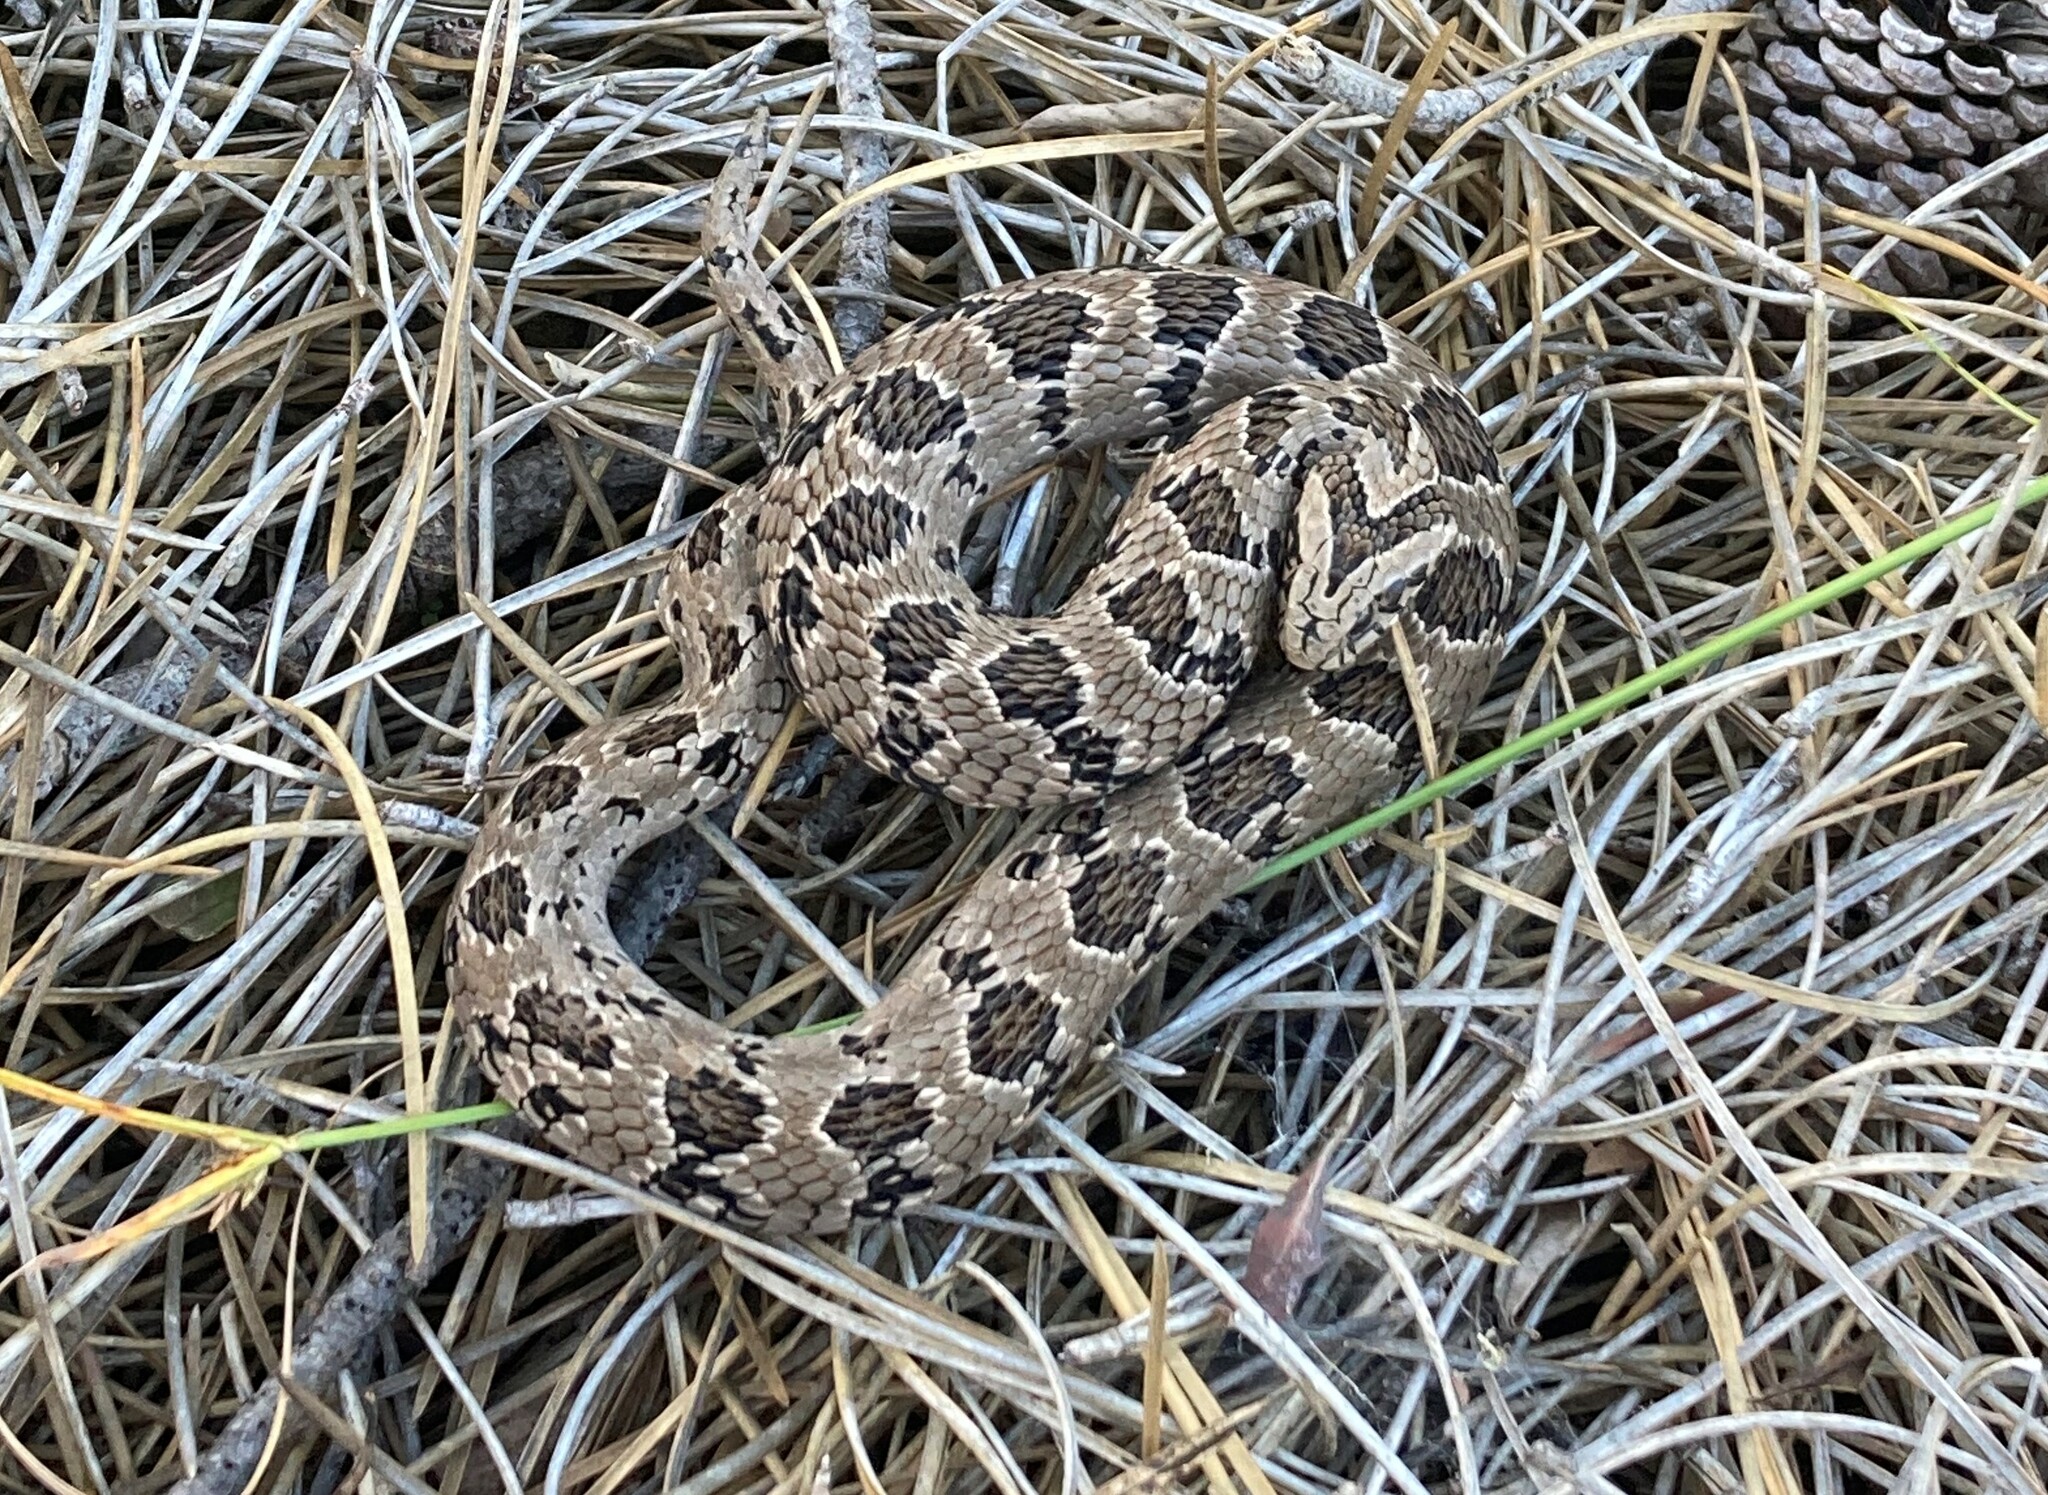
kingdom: Animalia
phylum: Chordata
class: Squamata
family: Viperidae
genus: Causus
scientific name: Causus rhombeatus
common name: Common night adder
